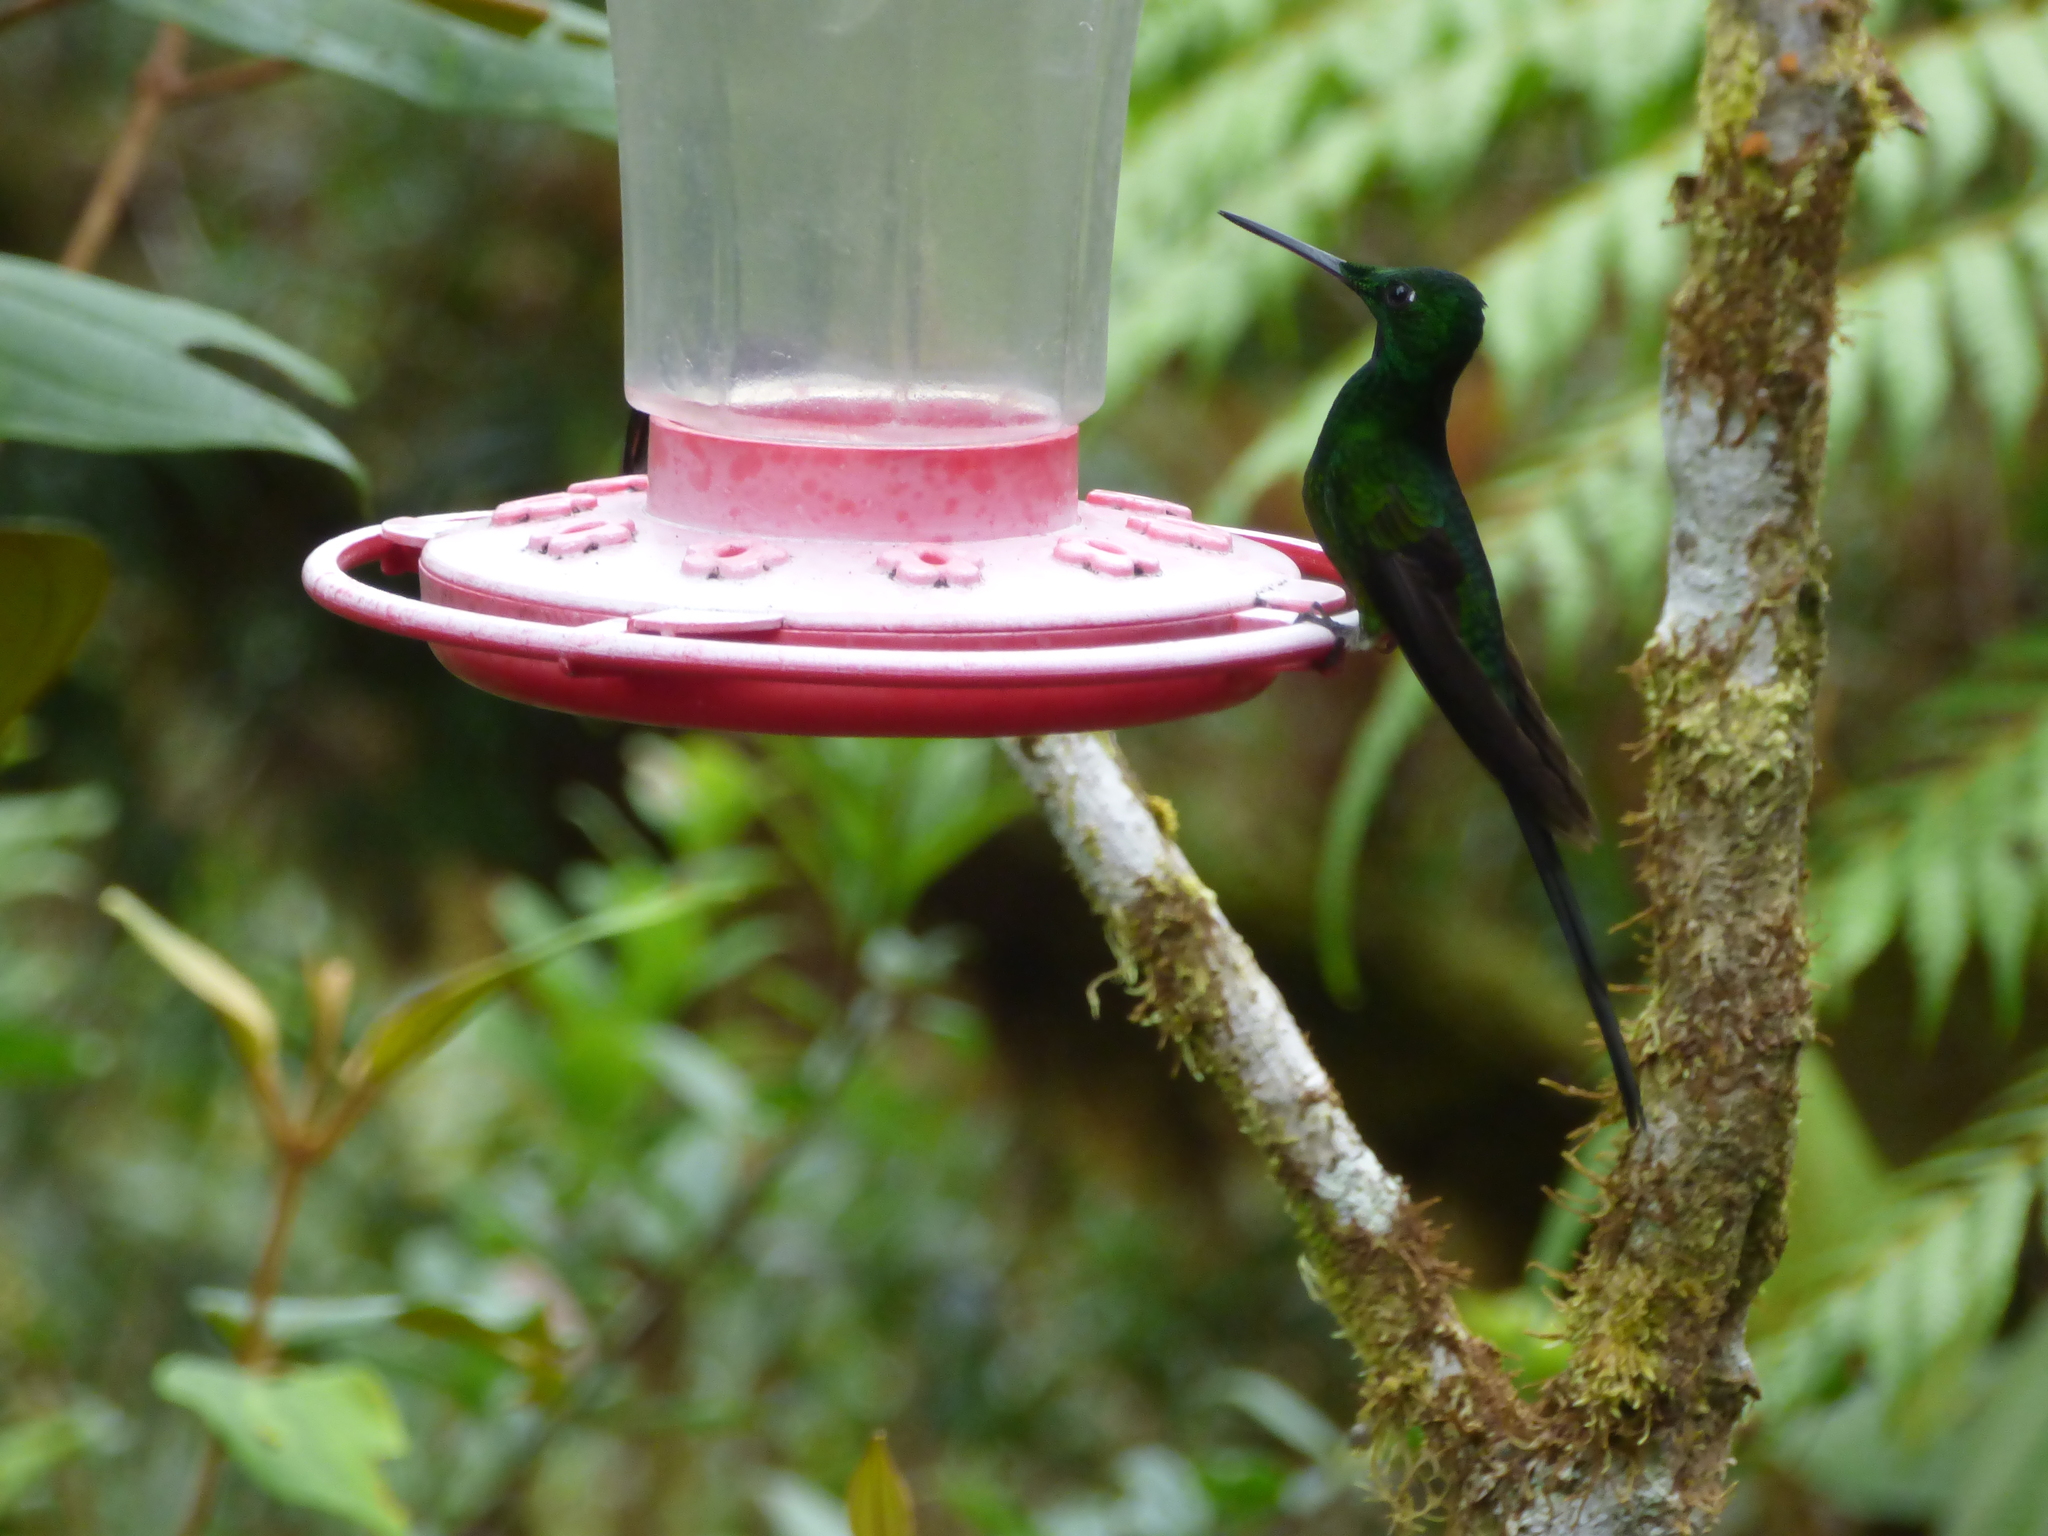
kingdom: Animalia
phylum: Chordata
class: Aves
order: Apodiformes
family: Trochilidae
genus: Heliodoxa
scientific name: Heliodoxa imperatrix
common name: Empress brilliant
